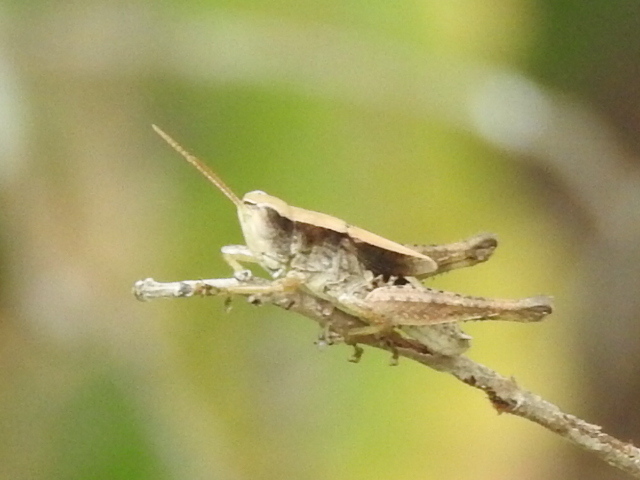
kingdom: Animalia
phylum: Arthropoda
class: Insecta
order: Orthoptera
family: Acrididae
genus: Dichromorpha
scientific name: Dichromorpha viridis
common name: Short-winged green grasshopper
